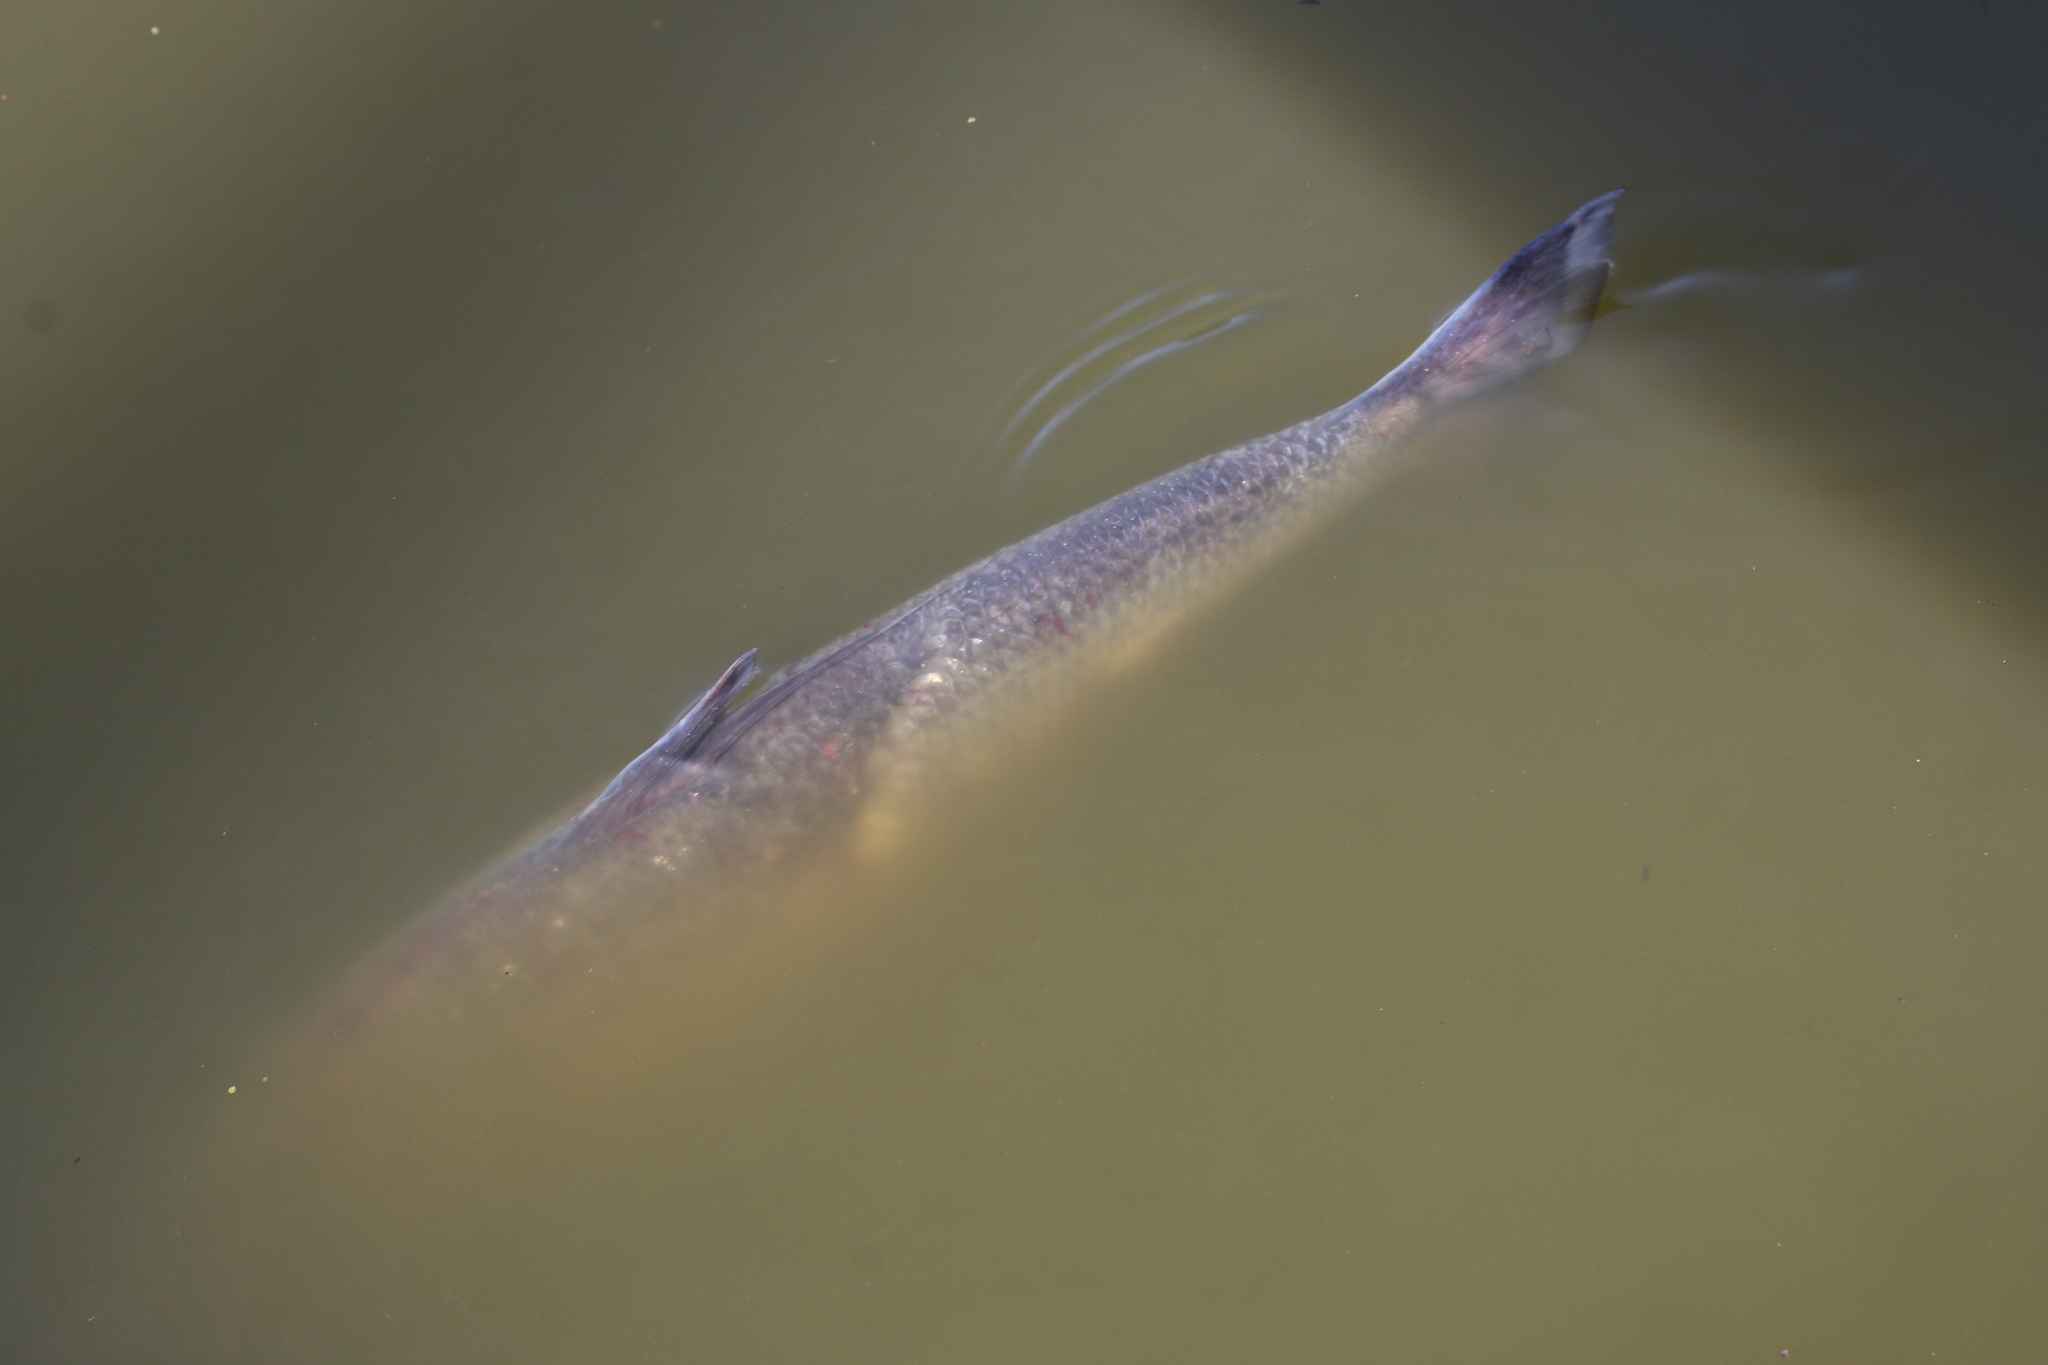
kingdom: Animalia
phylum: Chordata
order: Clupeiformes
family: Clupeidae
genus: Dorosoma
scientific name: Dorosoma cepedianum
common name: Gizzard shad
